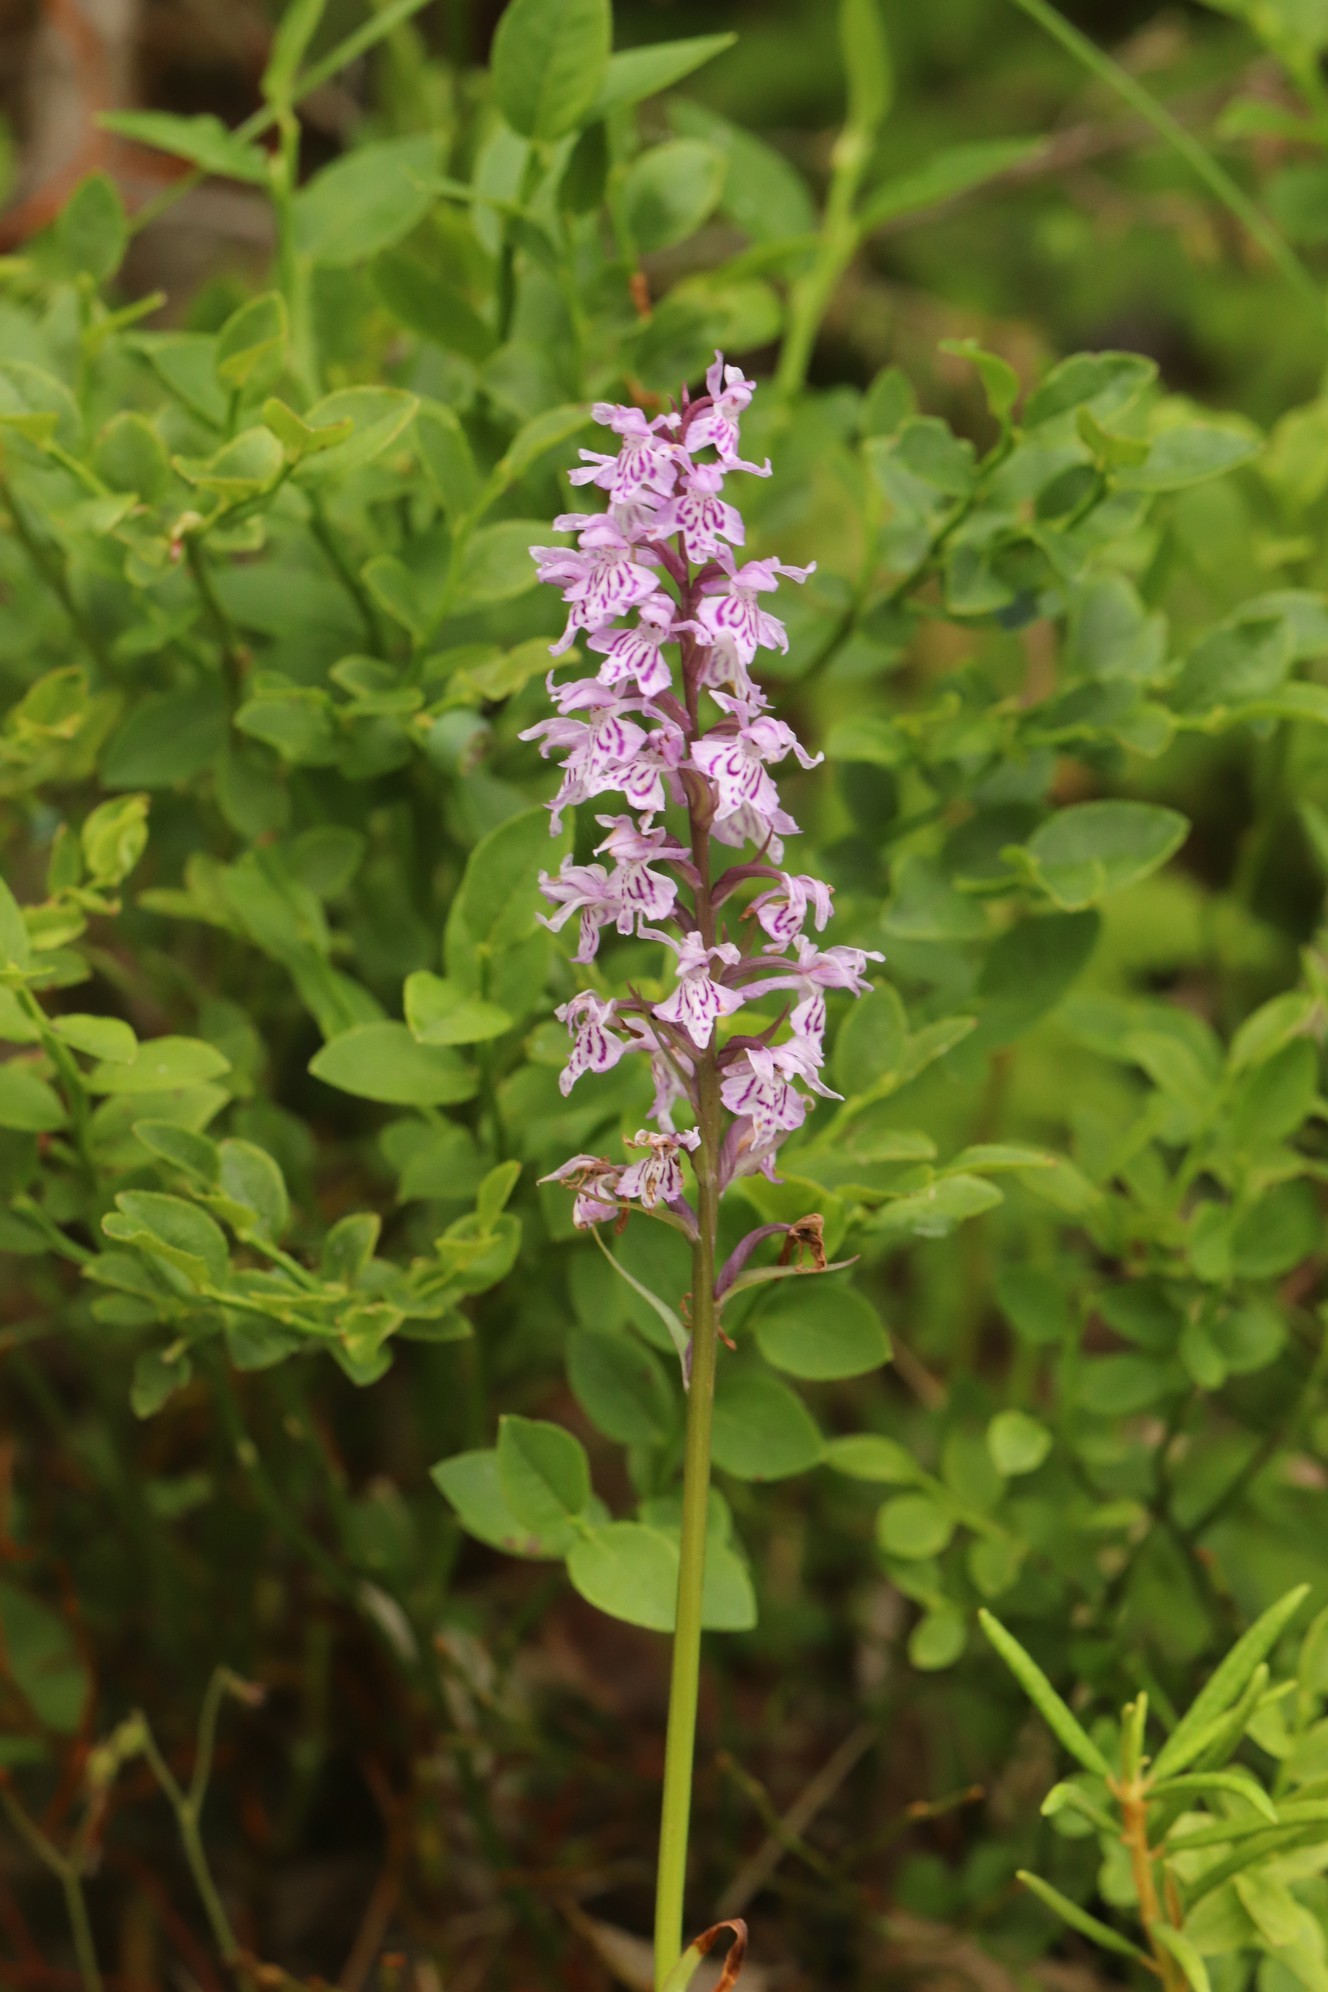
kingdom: Plantae
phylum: Tracheophyta
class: Liliopsida
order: Asparagales
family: Orchidaceae
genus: Dactylorhiza
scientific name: Dactylorhiza maculata
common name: Heath spotted-orchid
